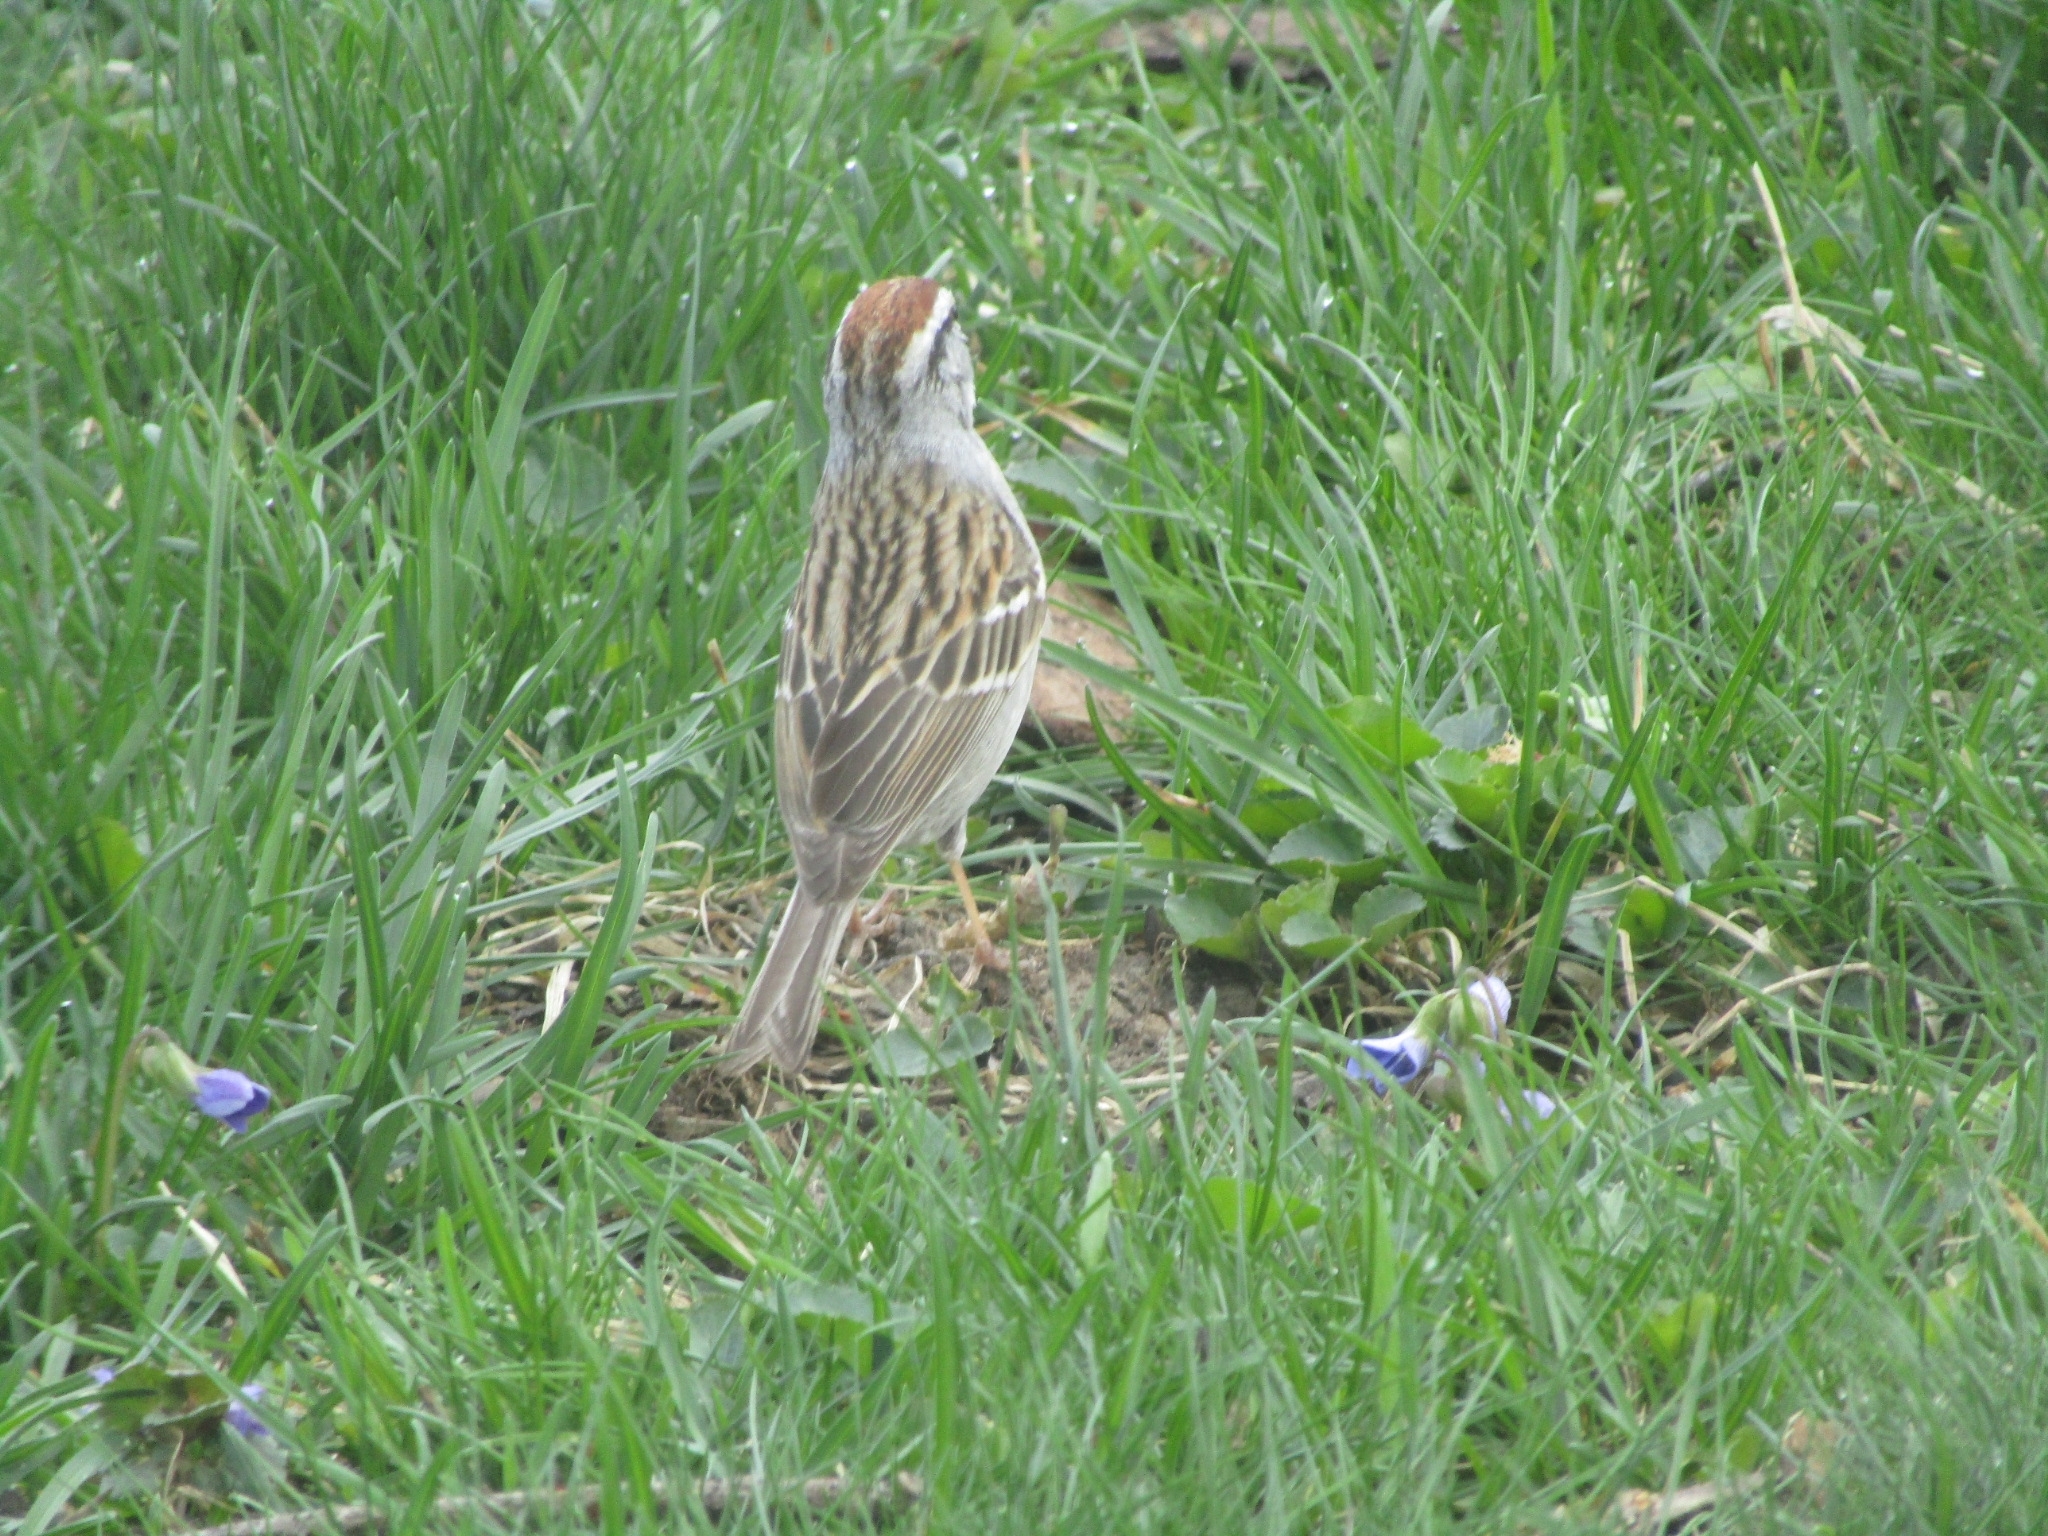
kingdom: Animalia
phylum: Chordata
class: Aves
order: Passeriformes
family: Passerellidae
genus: Spizella
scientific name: Spizella passerina
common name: Chipping sparrow
